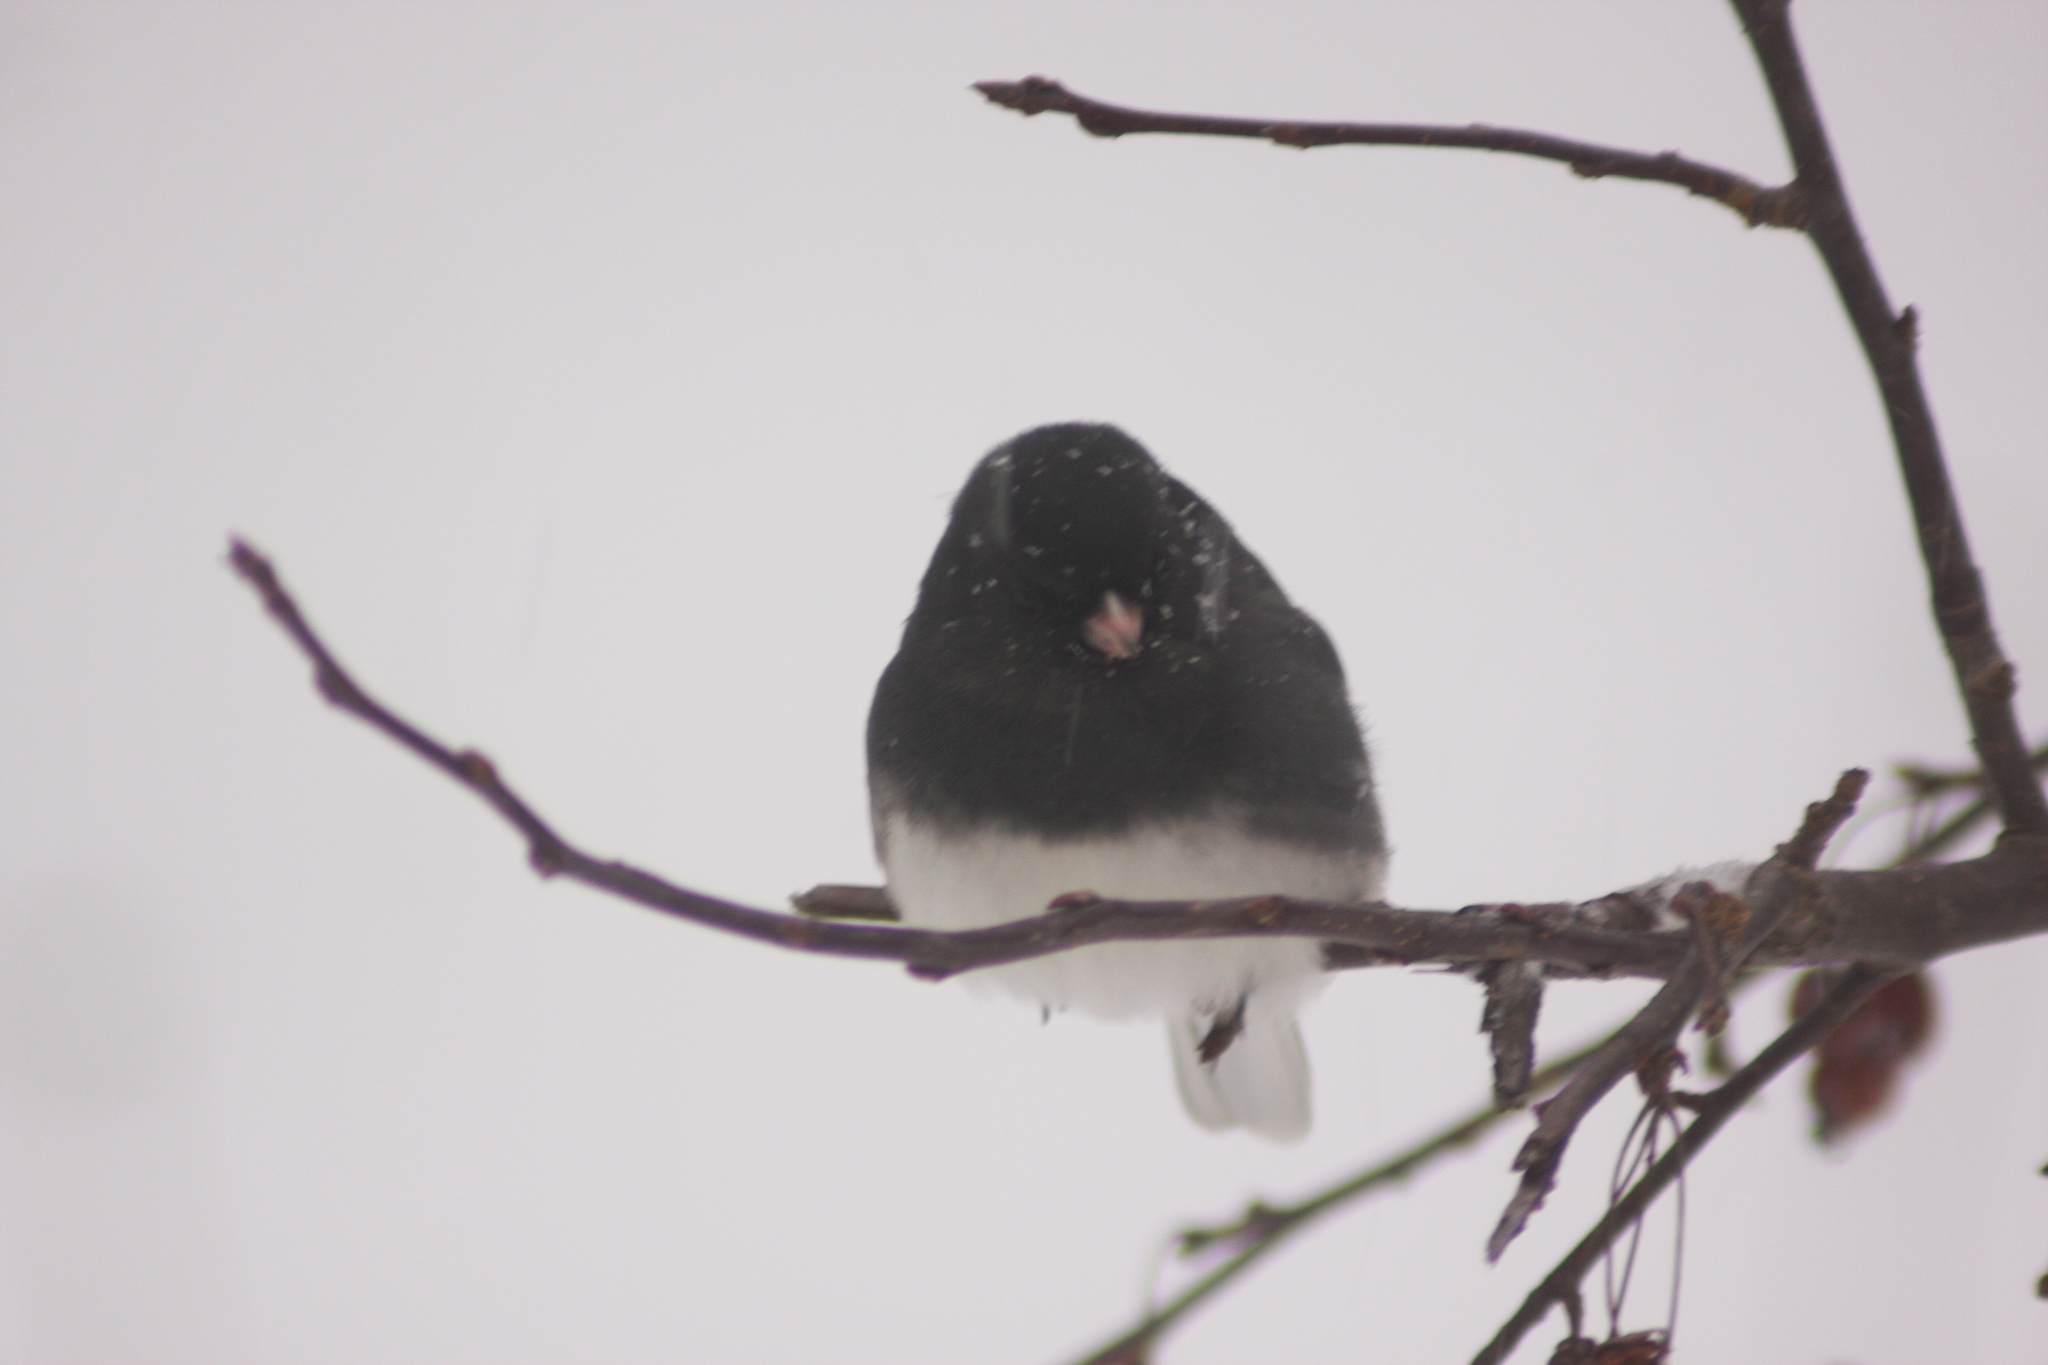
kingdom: Animalia
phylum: Chordata
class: Aves
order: Passeriformes
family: Passerellidae
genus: Junco
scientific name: Junco hyemalis
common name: Dark-eyed junco
